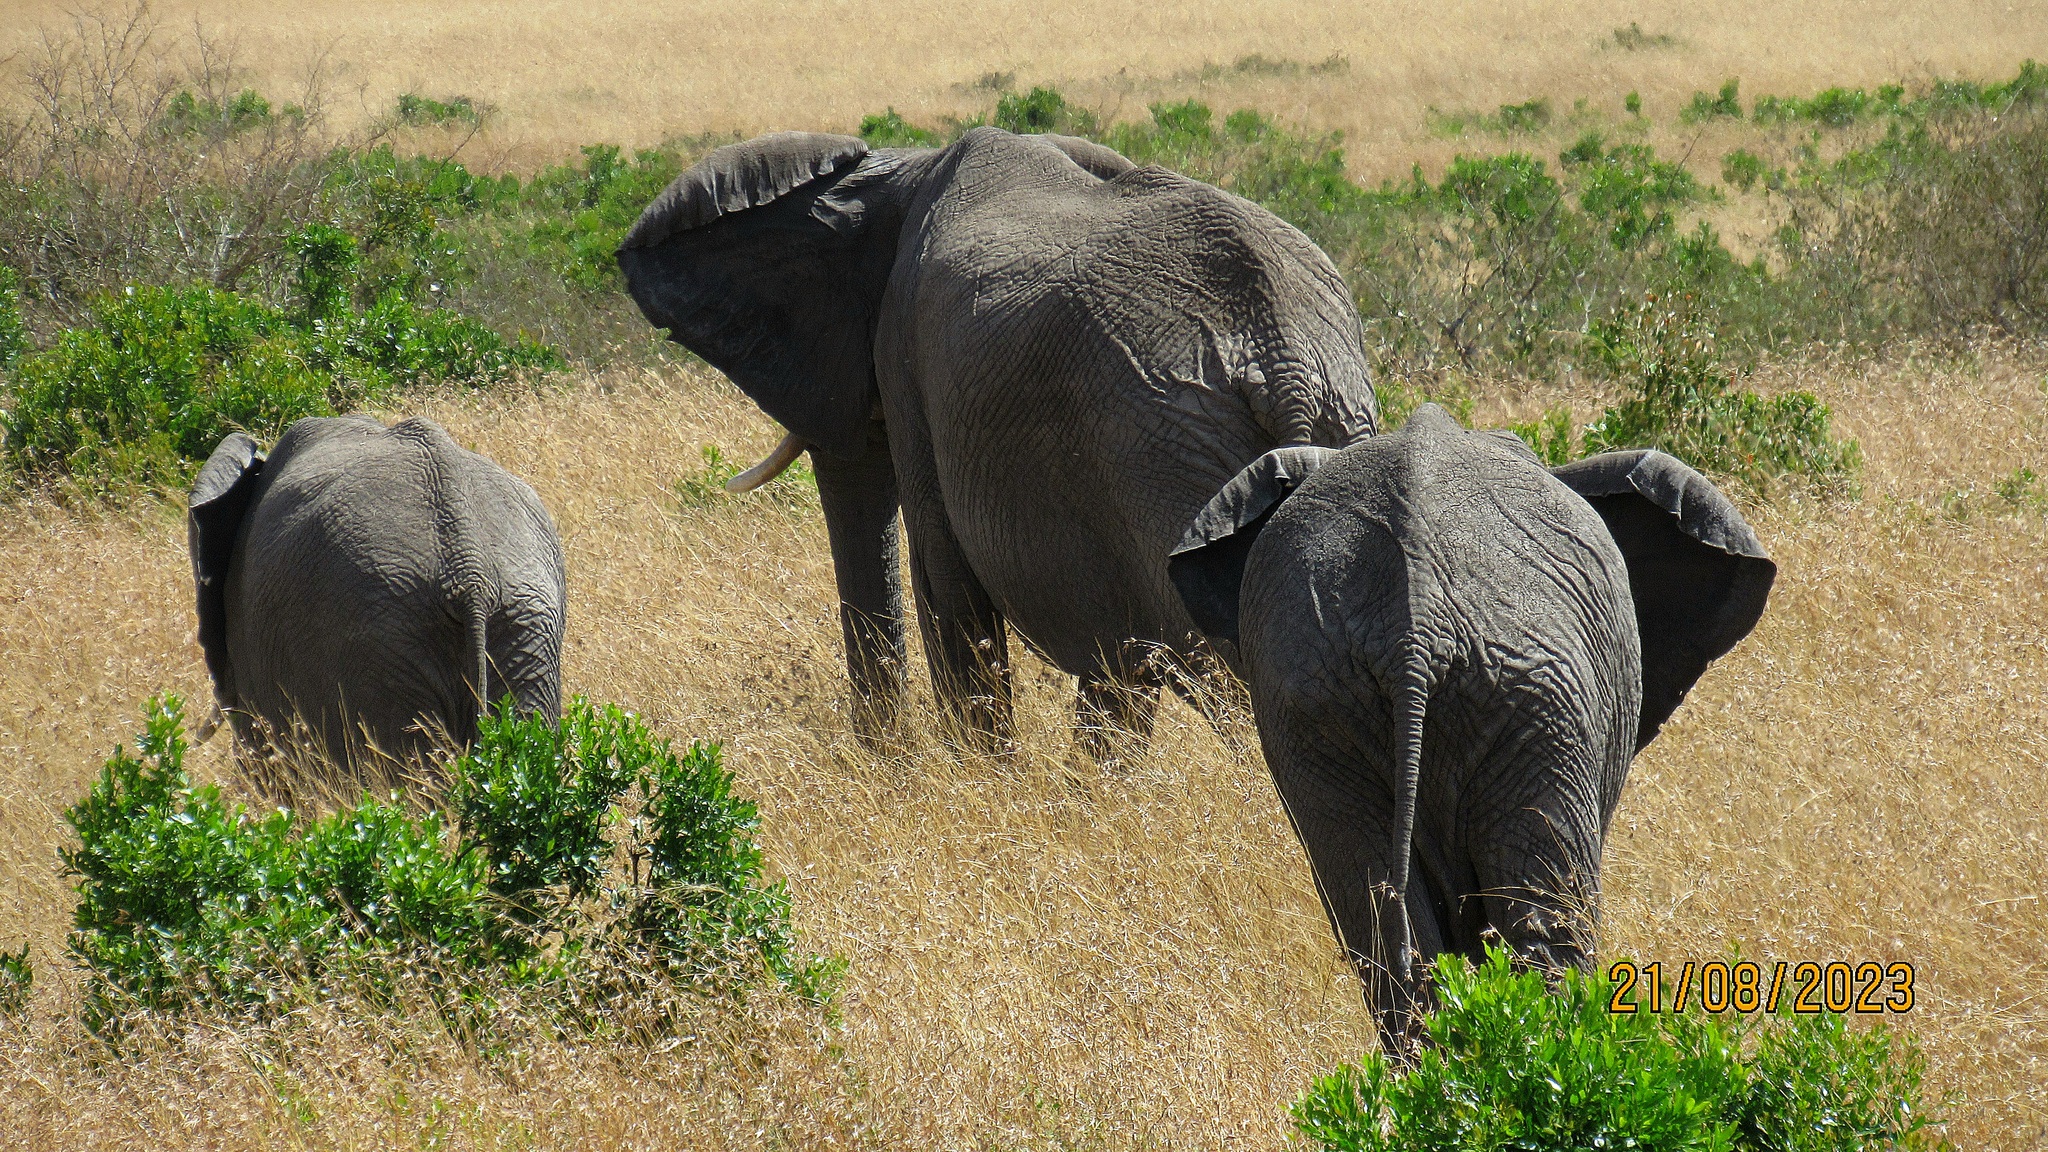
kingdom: Animalia
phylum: Chordata
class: Mammalia
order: Proboscidea
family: Elephantidae
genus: Loxodonta
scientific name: Loxodonta africana
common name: African elephant
